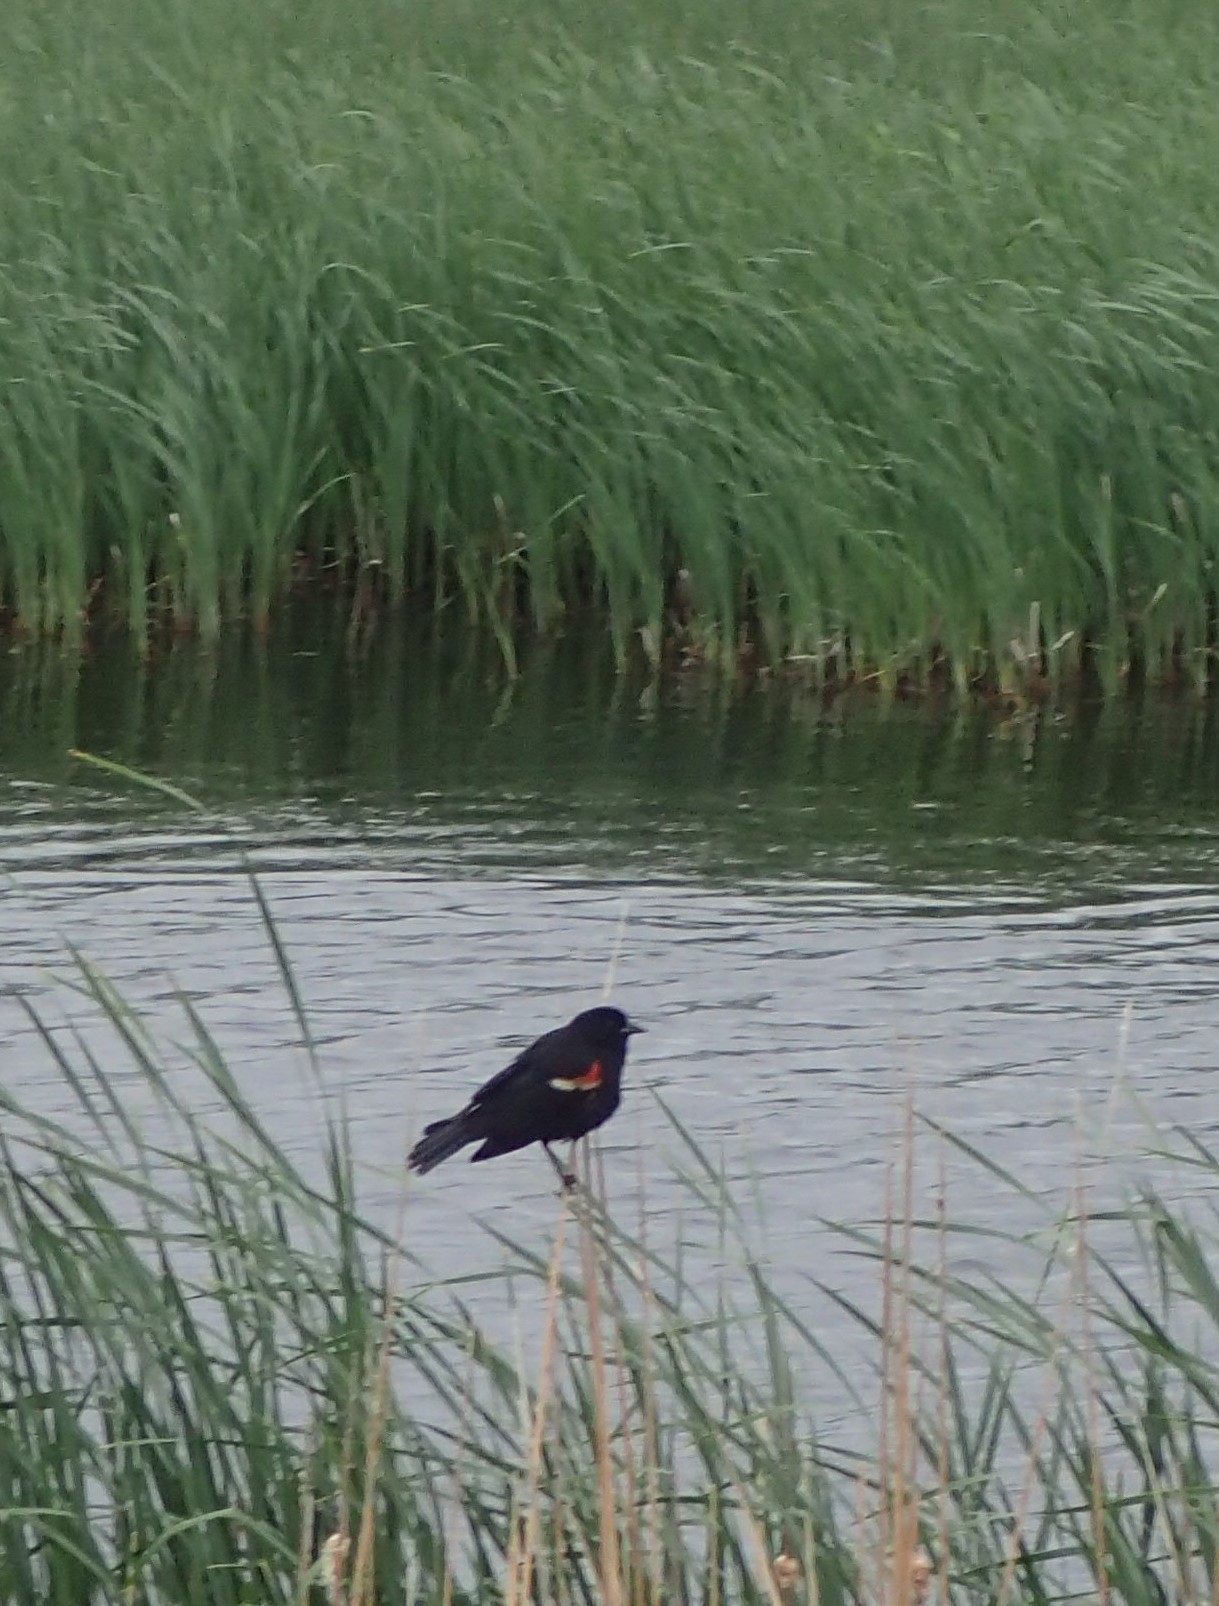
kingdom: Animalia
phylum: Chordata
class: Aves
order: Passeriformes
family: Icteridae
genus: Agelaius
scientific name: Agelaius phoeniceus
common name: Red-winged blackbird
